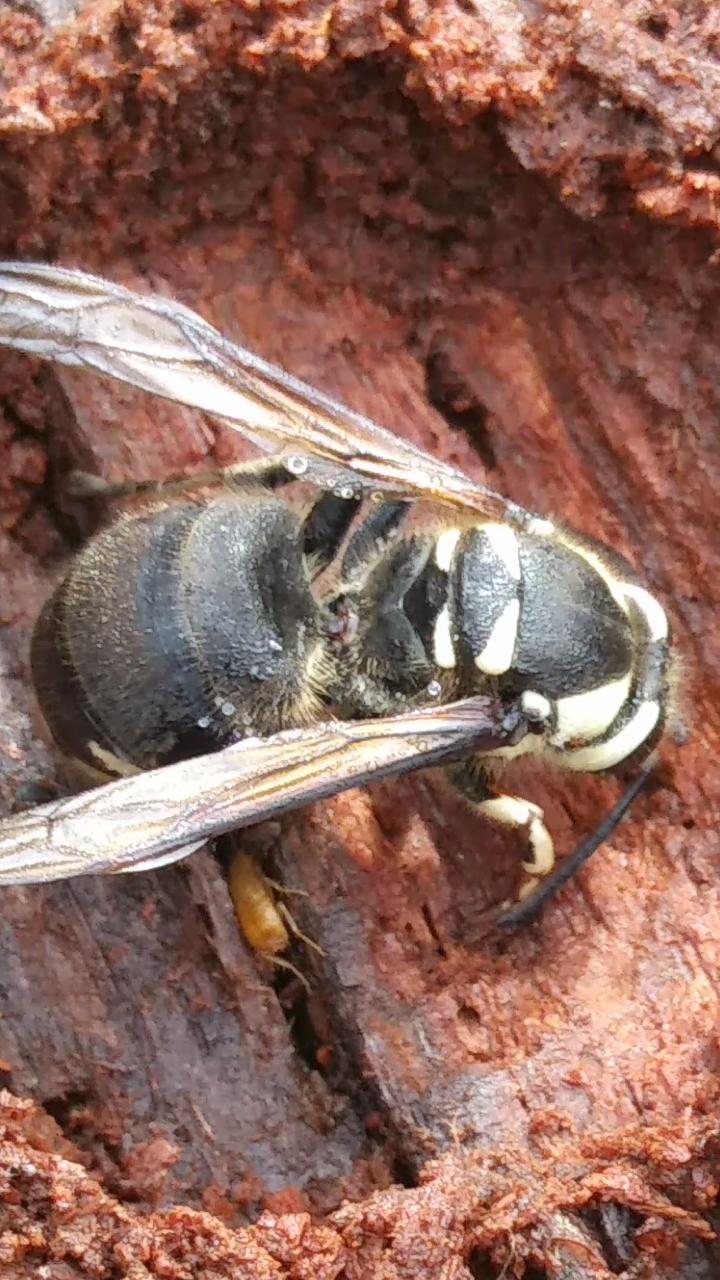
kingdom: Animalia
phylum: Arthropoda
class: Insecta
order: Hymenoptera
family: Vespidae
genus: Dolichovespula
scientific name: Dolichovespula maculata
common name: Bald-faced hornet
